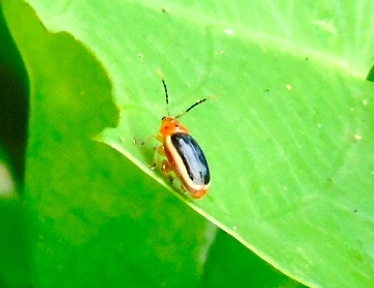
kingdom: Animalia
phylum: Arthropoda
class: Insecta
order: Coleoptera
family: Chrysomelidae
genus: Alticini
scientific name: Alticini
